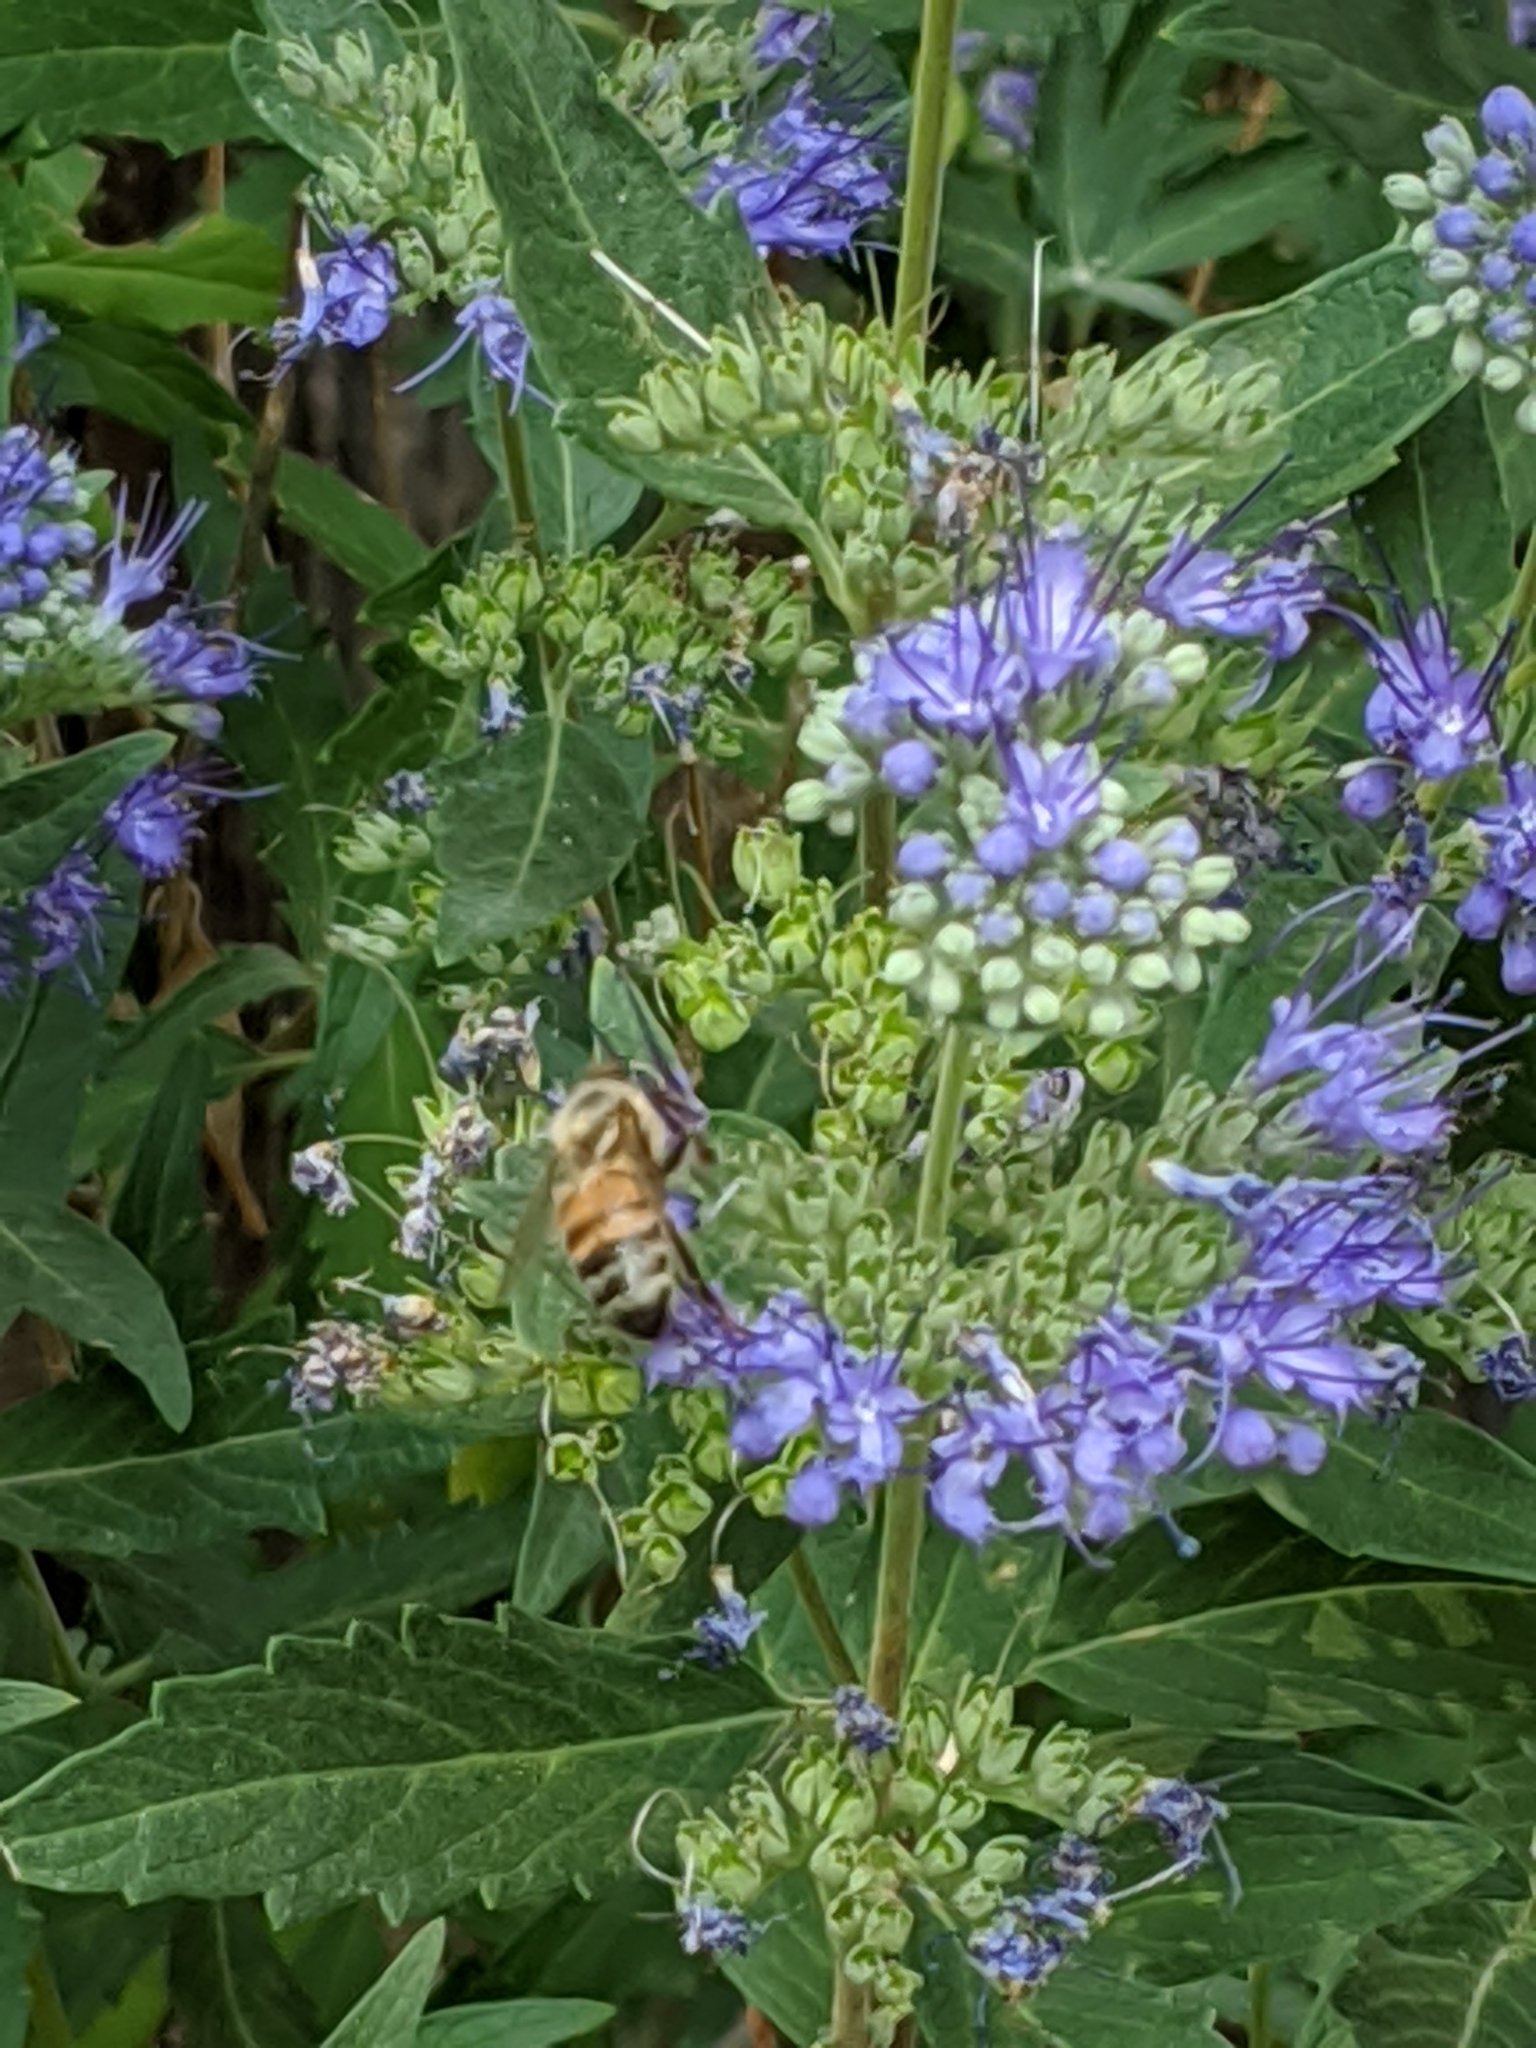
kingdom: Animalia
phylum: Arthropoda
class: Insecta
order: Hymenoptera
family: Apidae
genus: Apis
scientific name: Apis mellifera
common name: Honey bee
